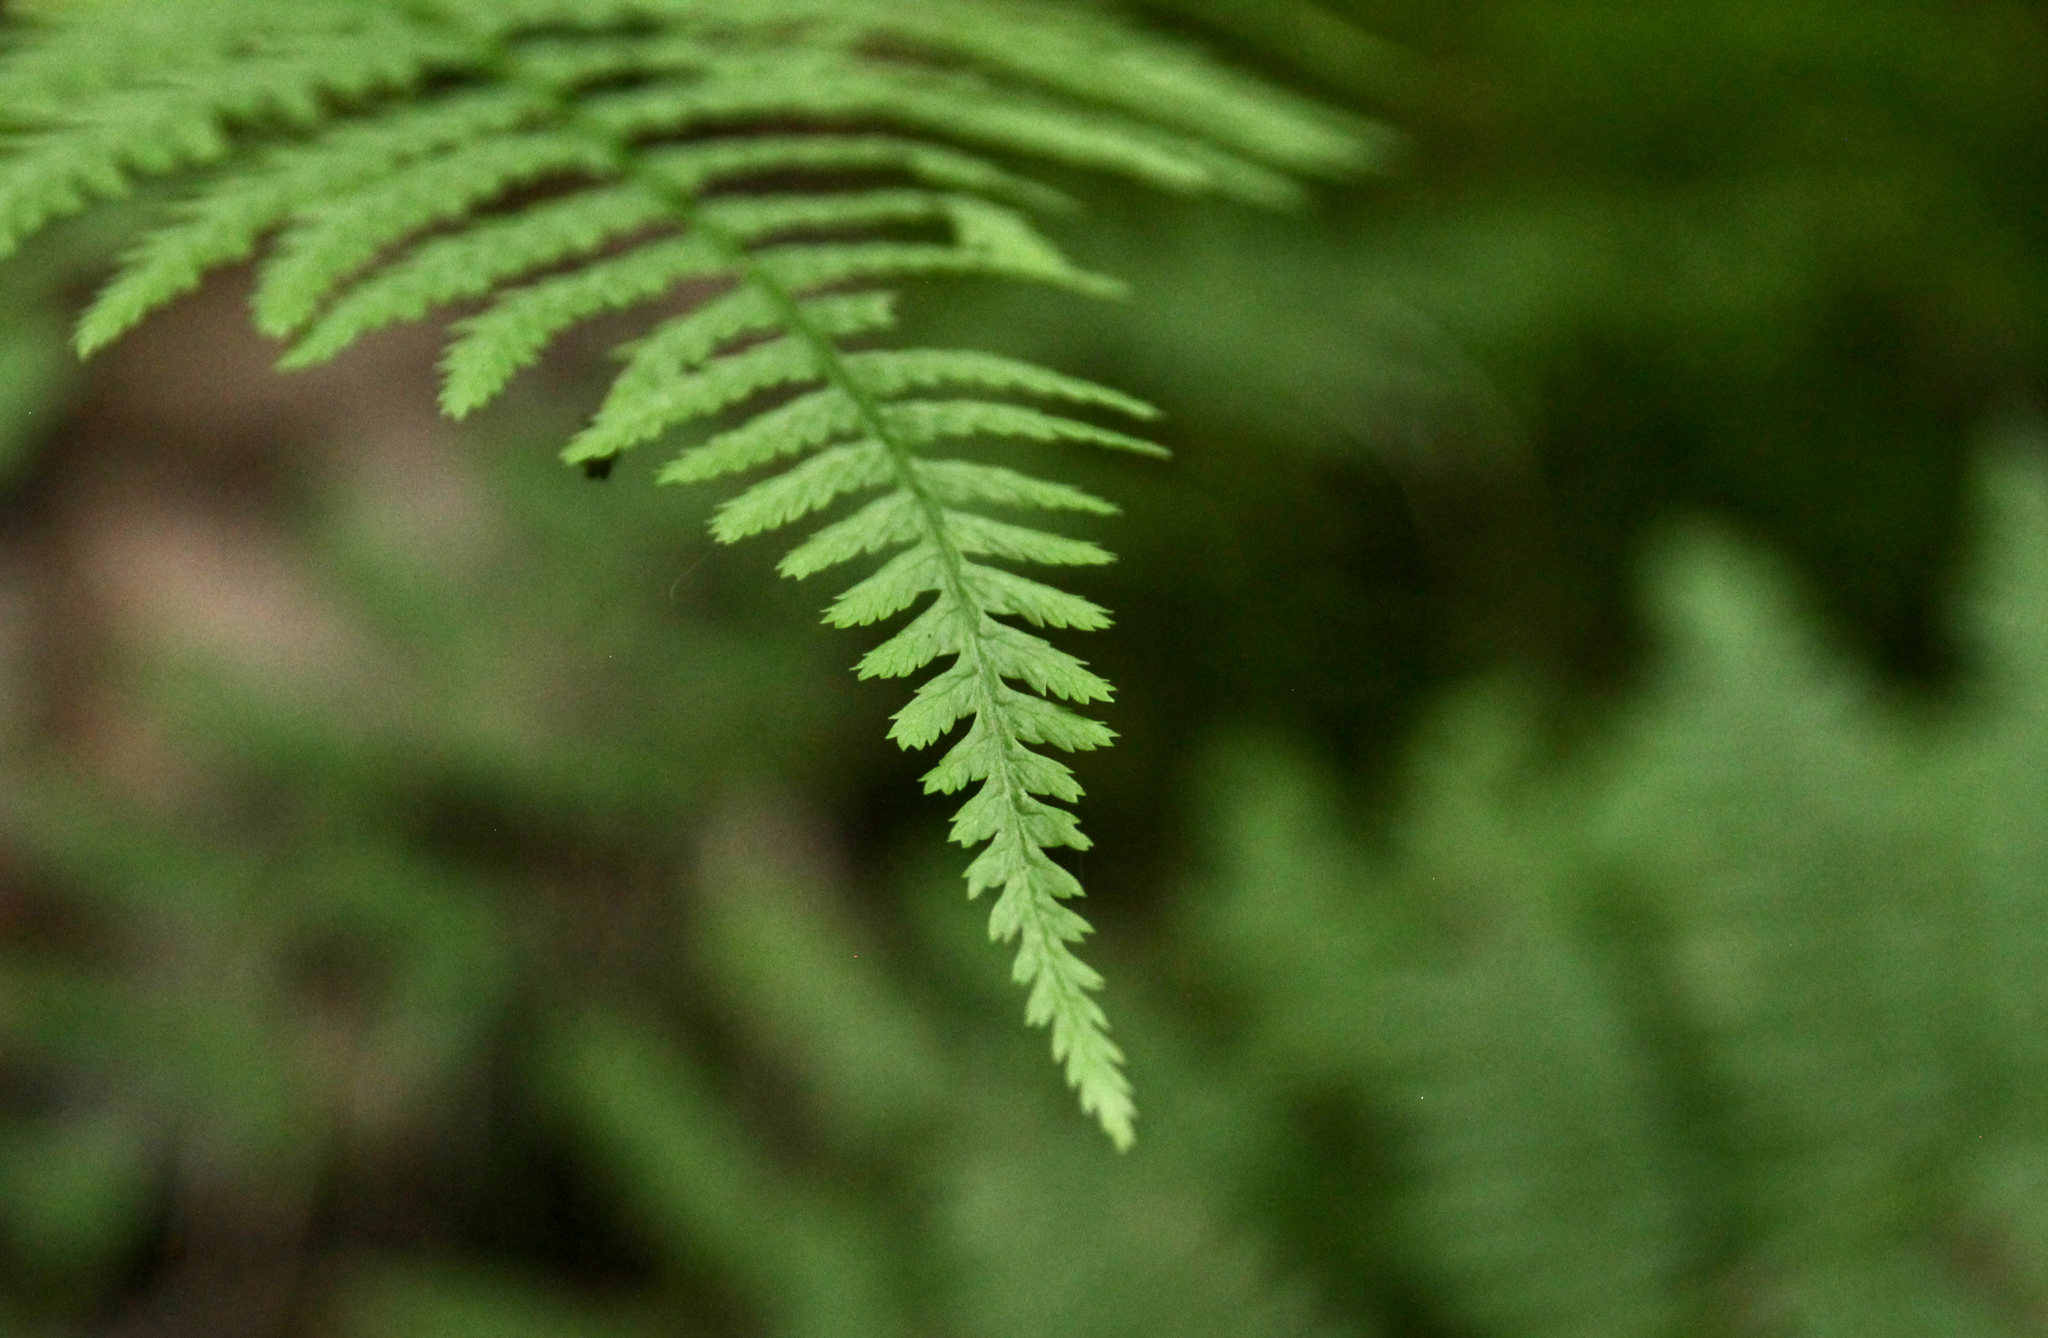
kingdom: Plantae
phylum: Tracheophyta
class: Polypodiopsida
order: Polypodiales
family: Athyriaceae
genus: Athyrium
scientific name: Athyrium angustum
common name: Northern lady fern
